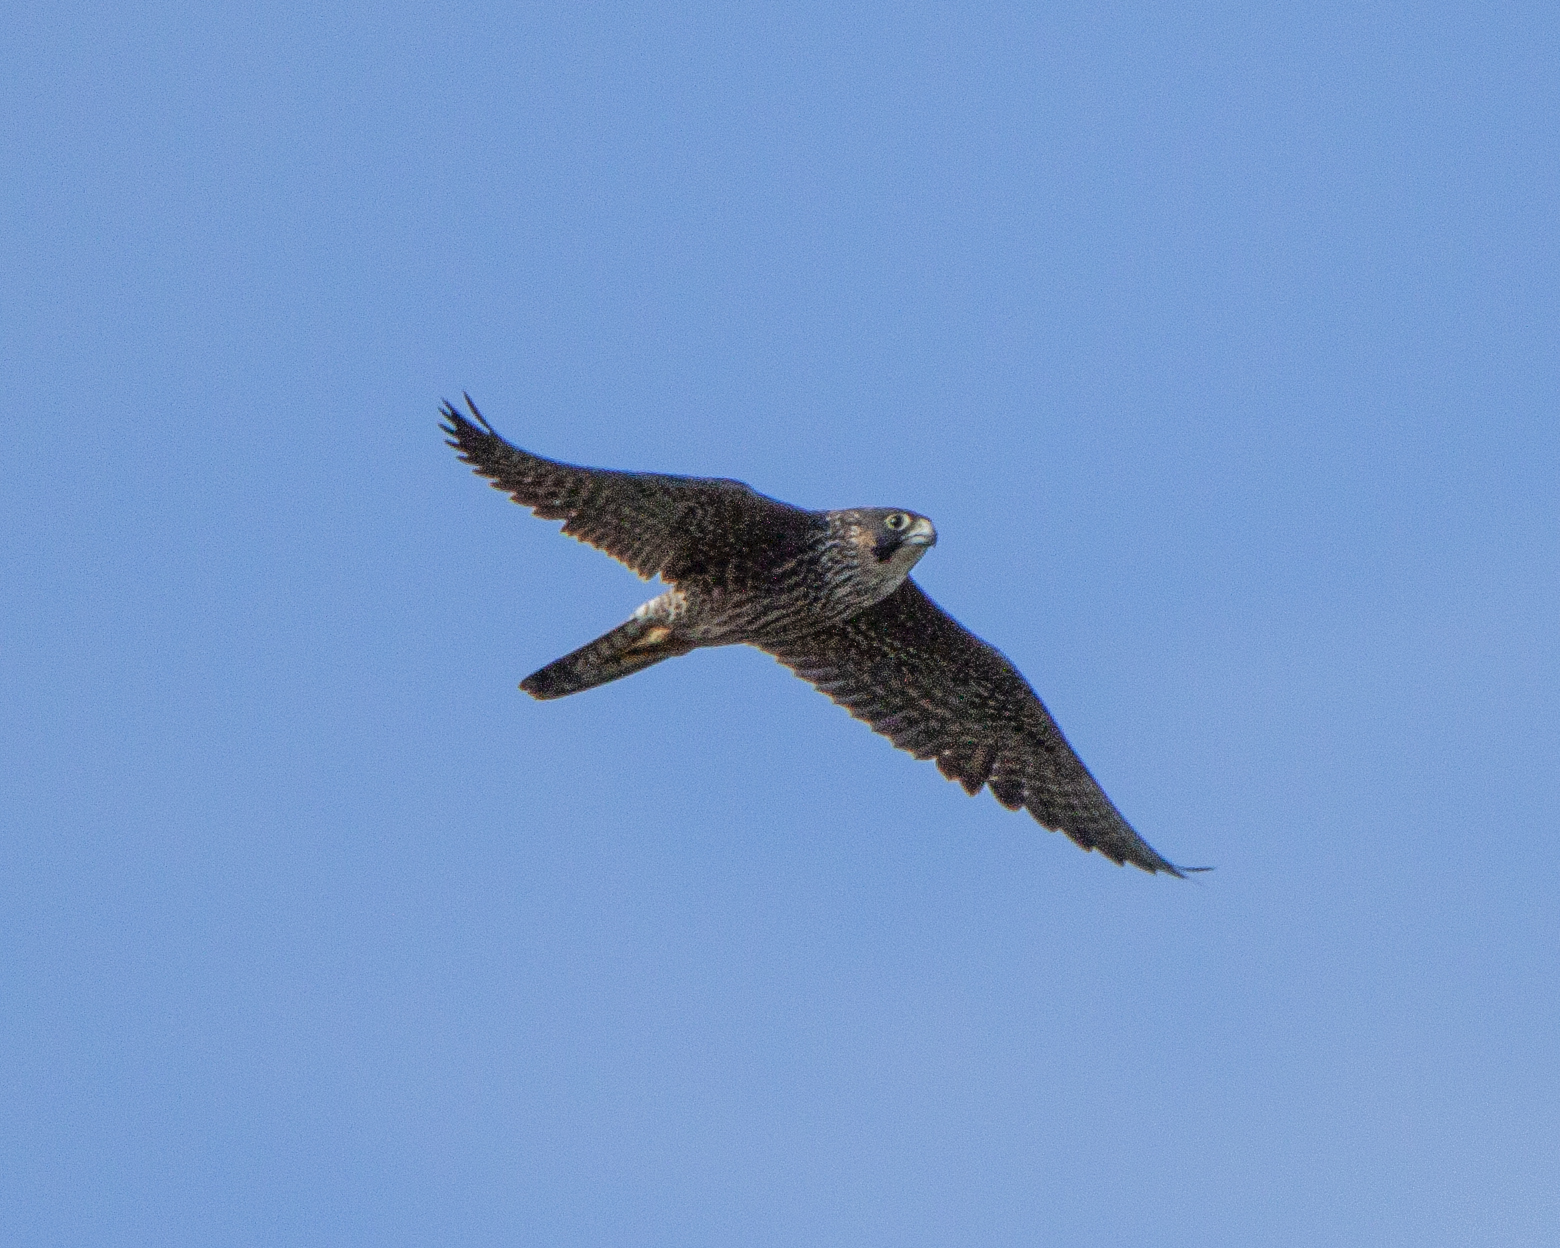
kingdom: Animalia
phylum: Chordata
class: Aves
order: Falconiformes
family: Falconidae
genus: Falco
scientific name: Falco peregrinus
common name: Peregrine falcon
